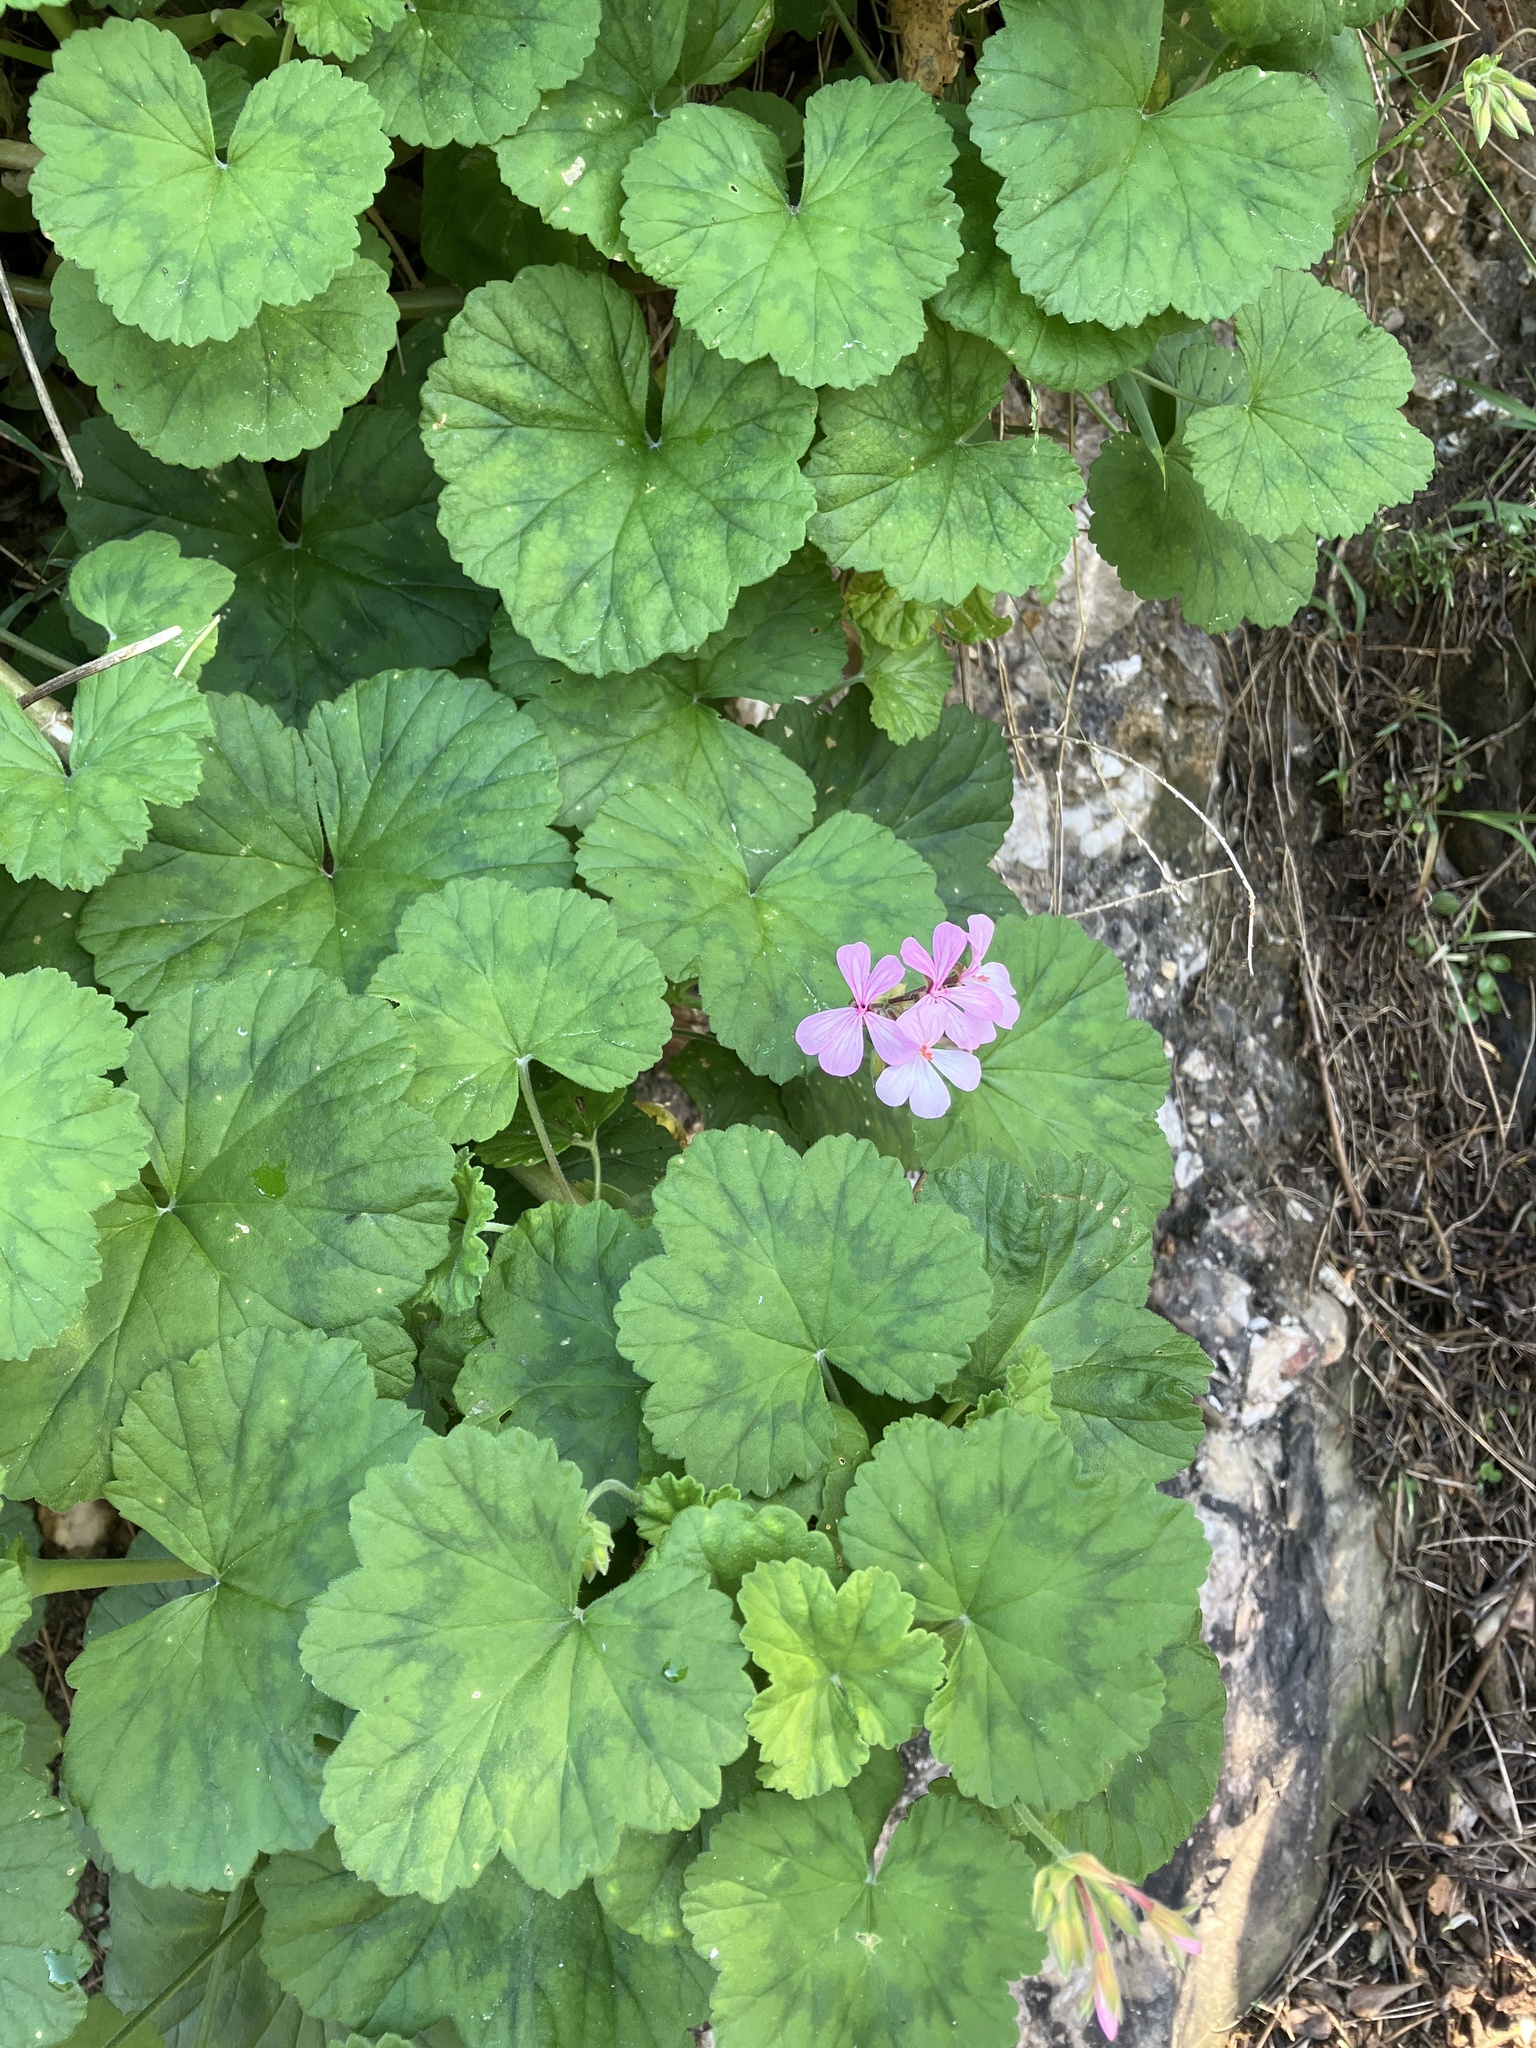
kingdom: Plantae
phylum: Tracheophyta
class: Magnoliopsida
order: Geraniales
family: Geraniaceae
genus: Pelargonium
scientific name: Pelargonium zonale
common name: Horseshoe geranium
